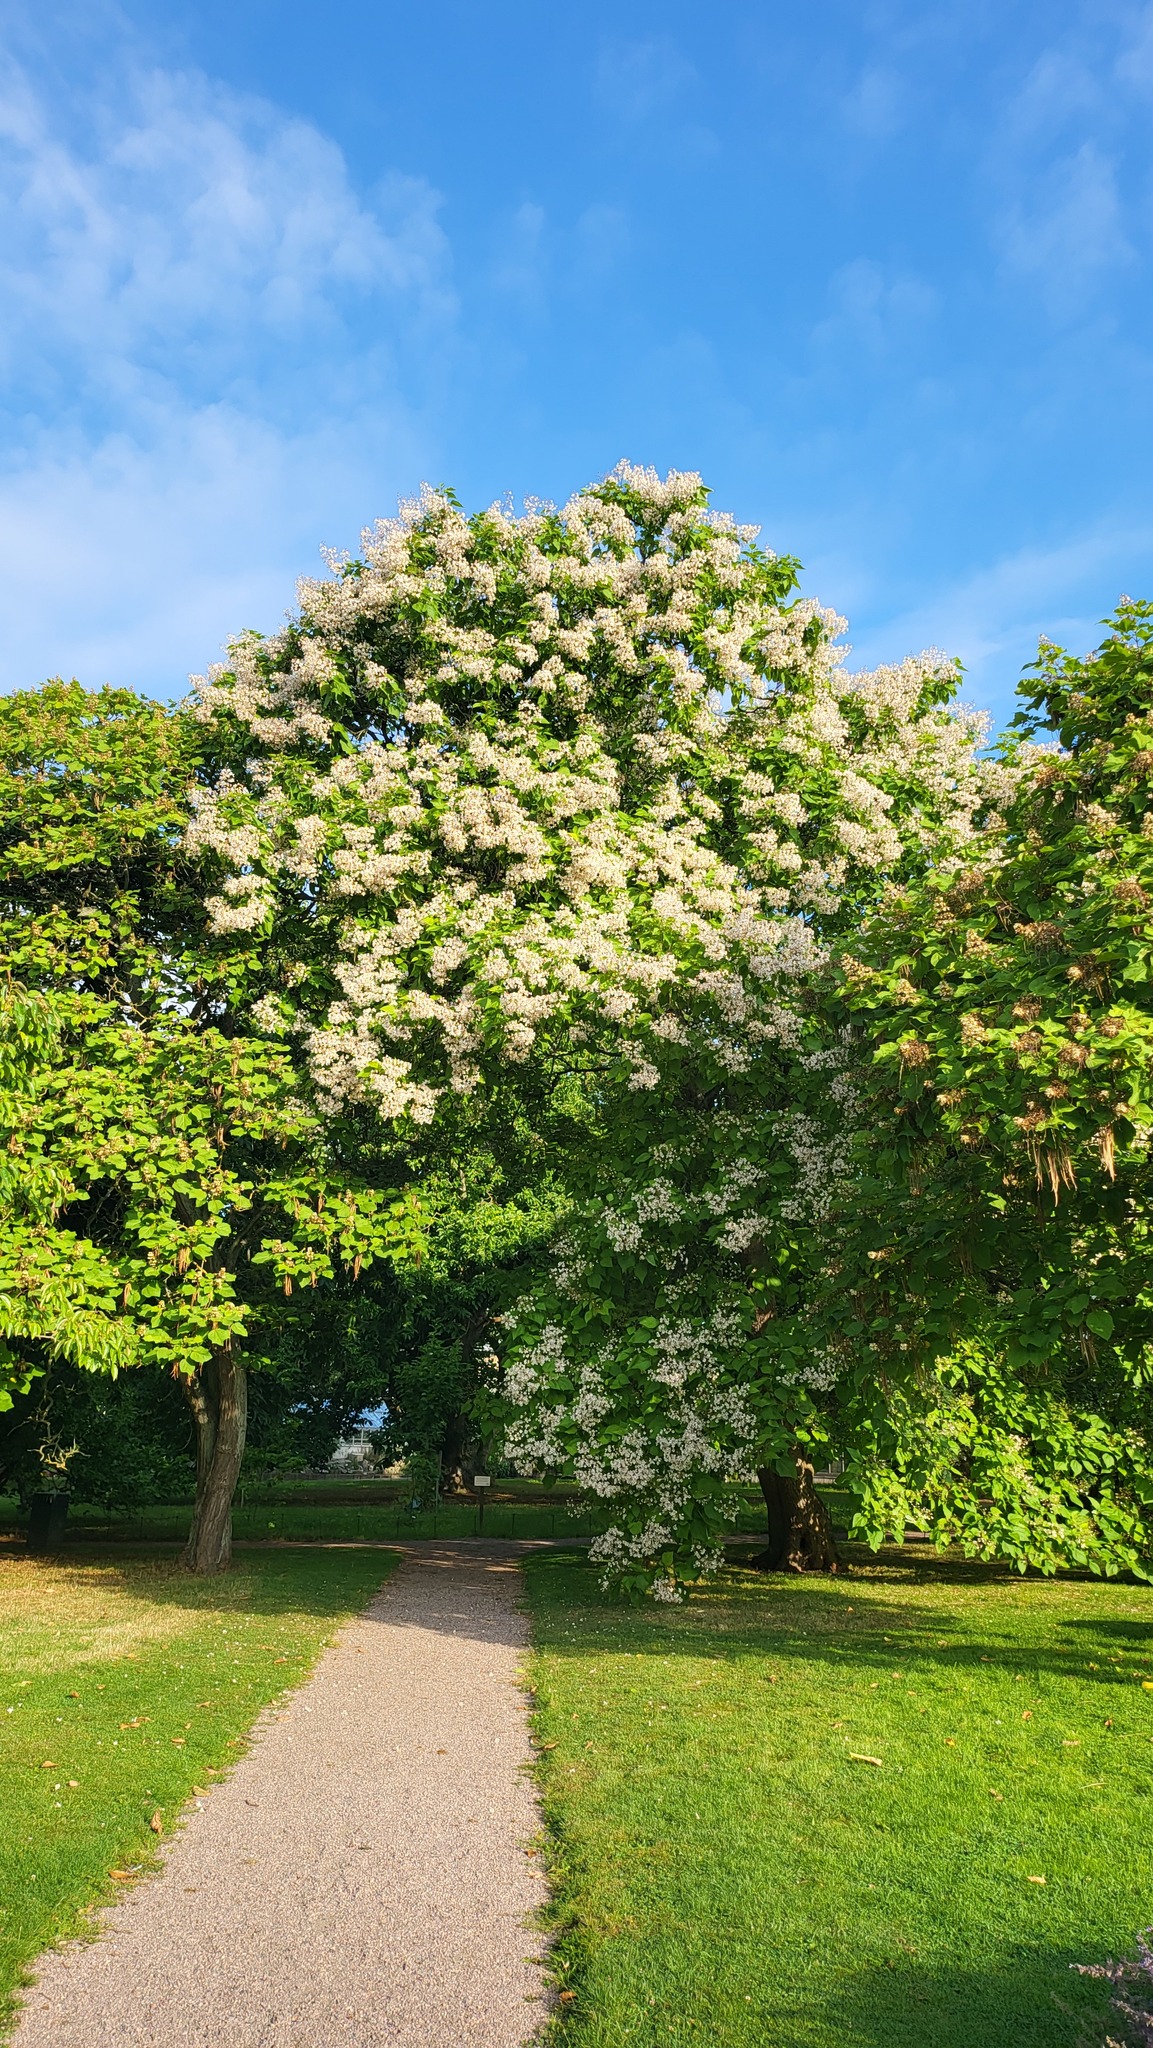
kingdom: Plantae
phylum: Tracheophyta
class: Magnoliopsida
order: Lamiales
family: Bignoniaceae
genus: Catalpa
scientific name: Catalpa bignonioides
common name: Southern catalpa
